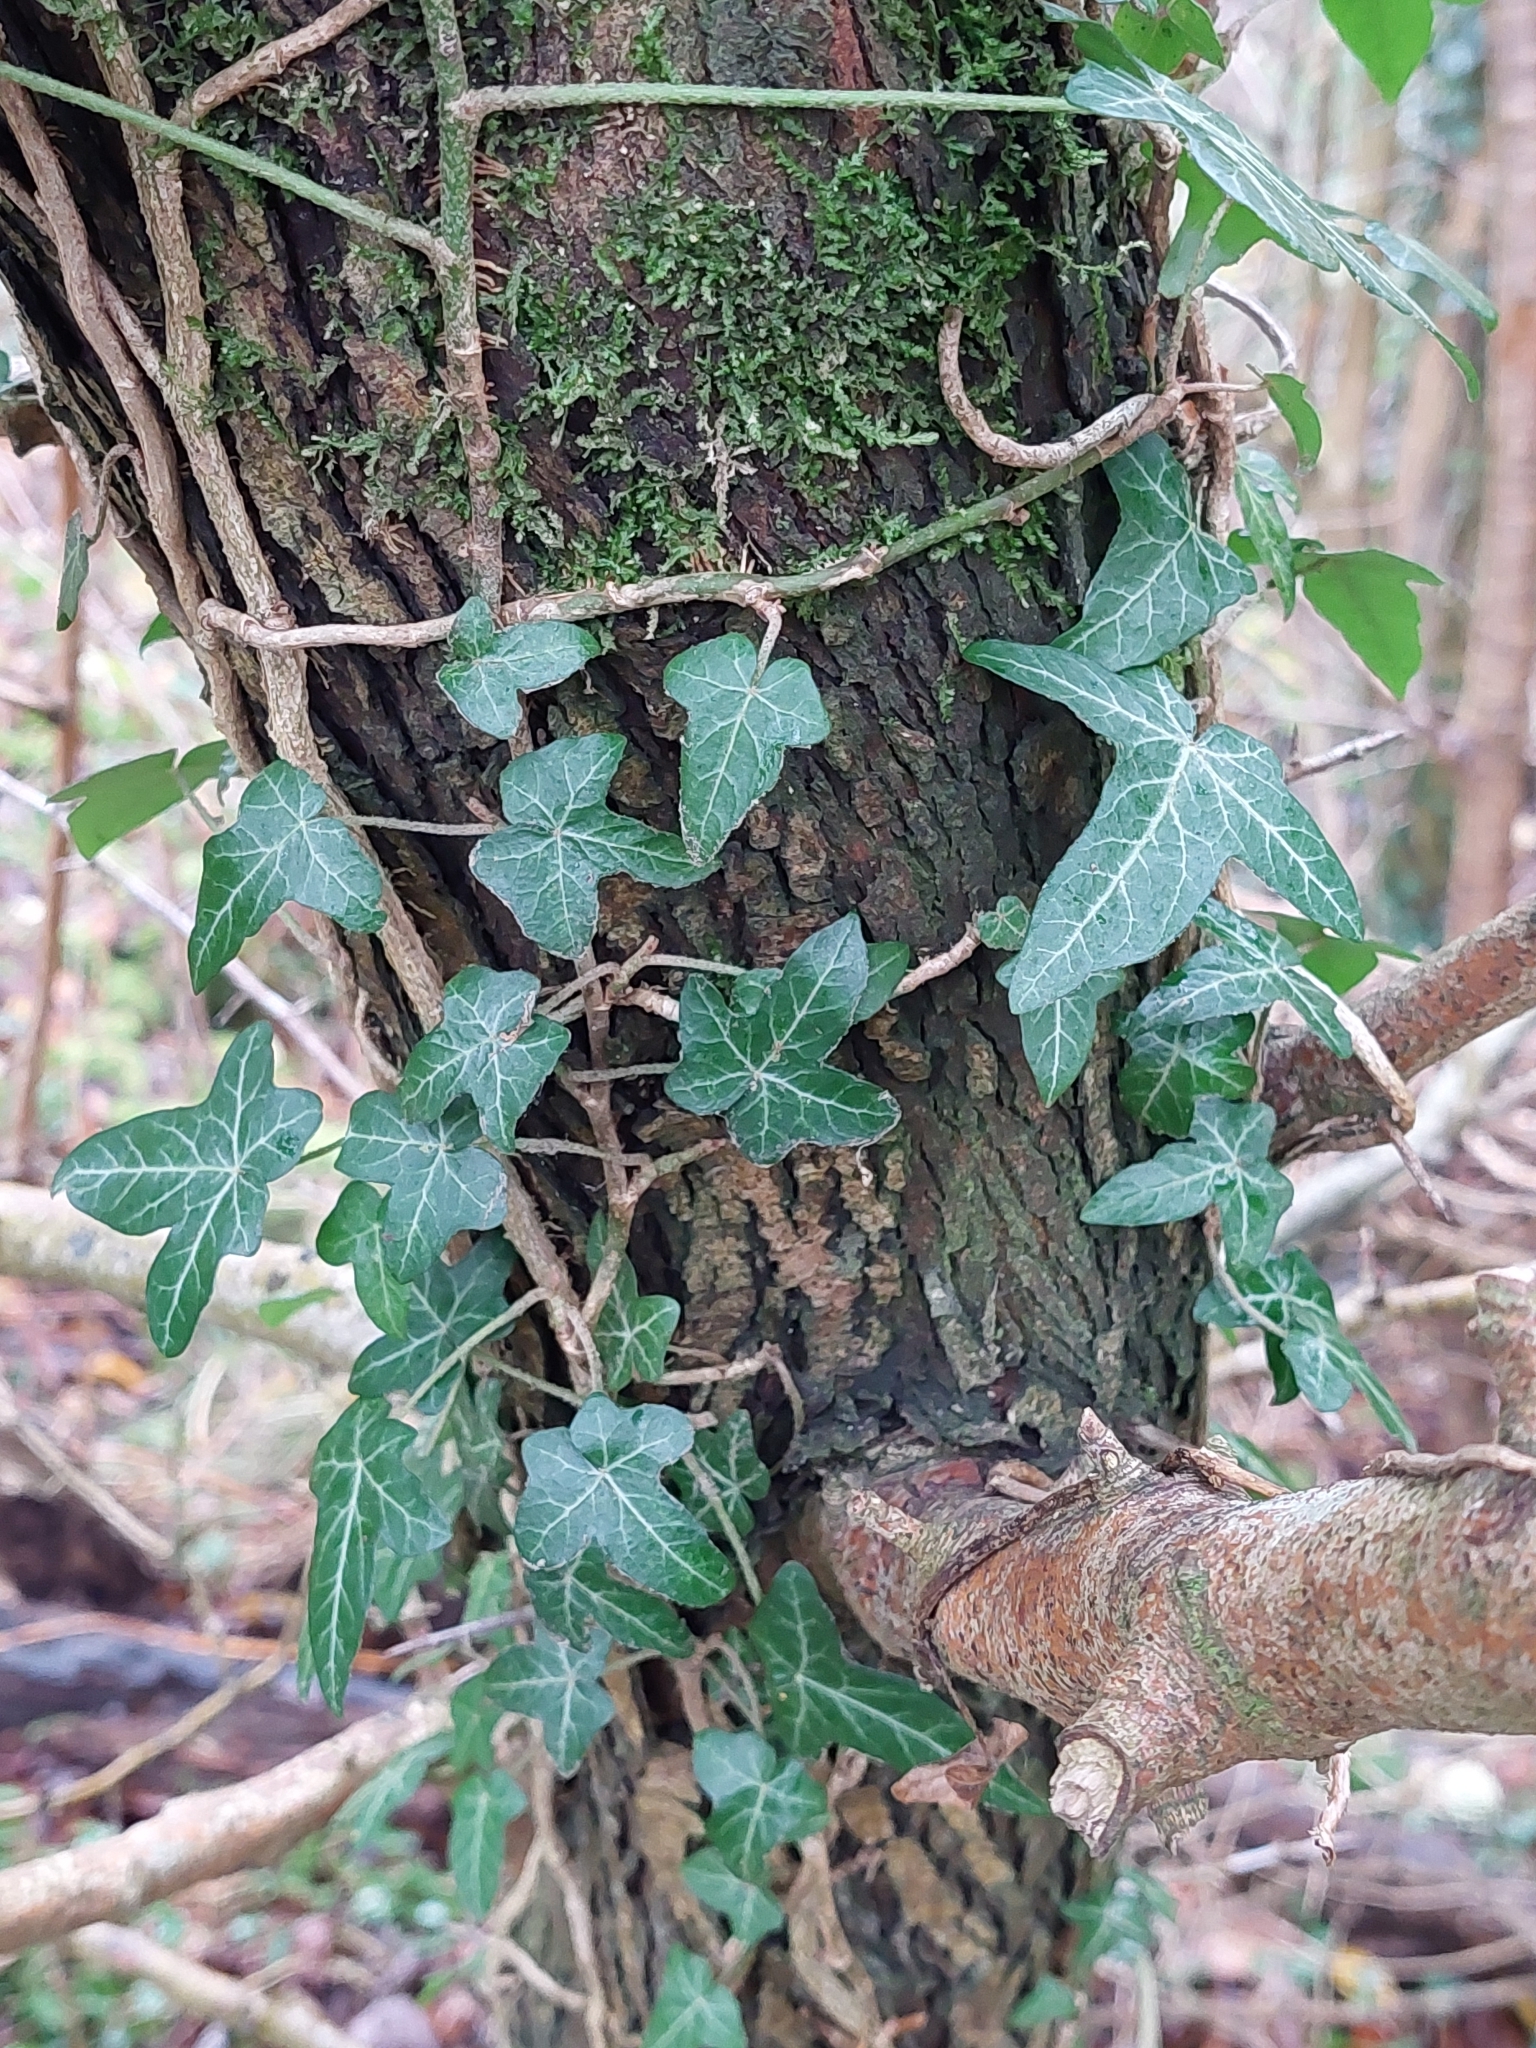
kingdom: Plantae
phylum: Tracheophyta
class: Magnoliopsida
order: Apiales
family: Araliaceae
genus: Hedera
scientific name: Hedera helix
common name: Ivy
